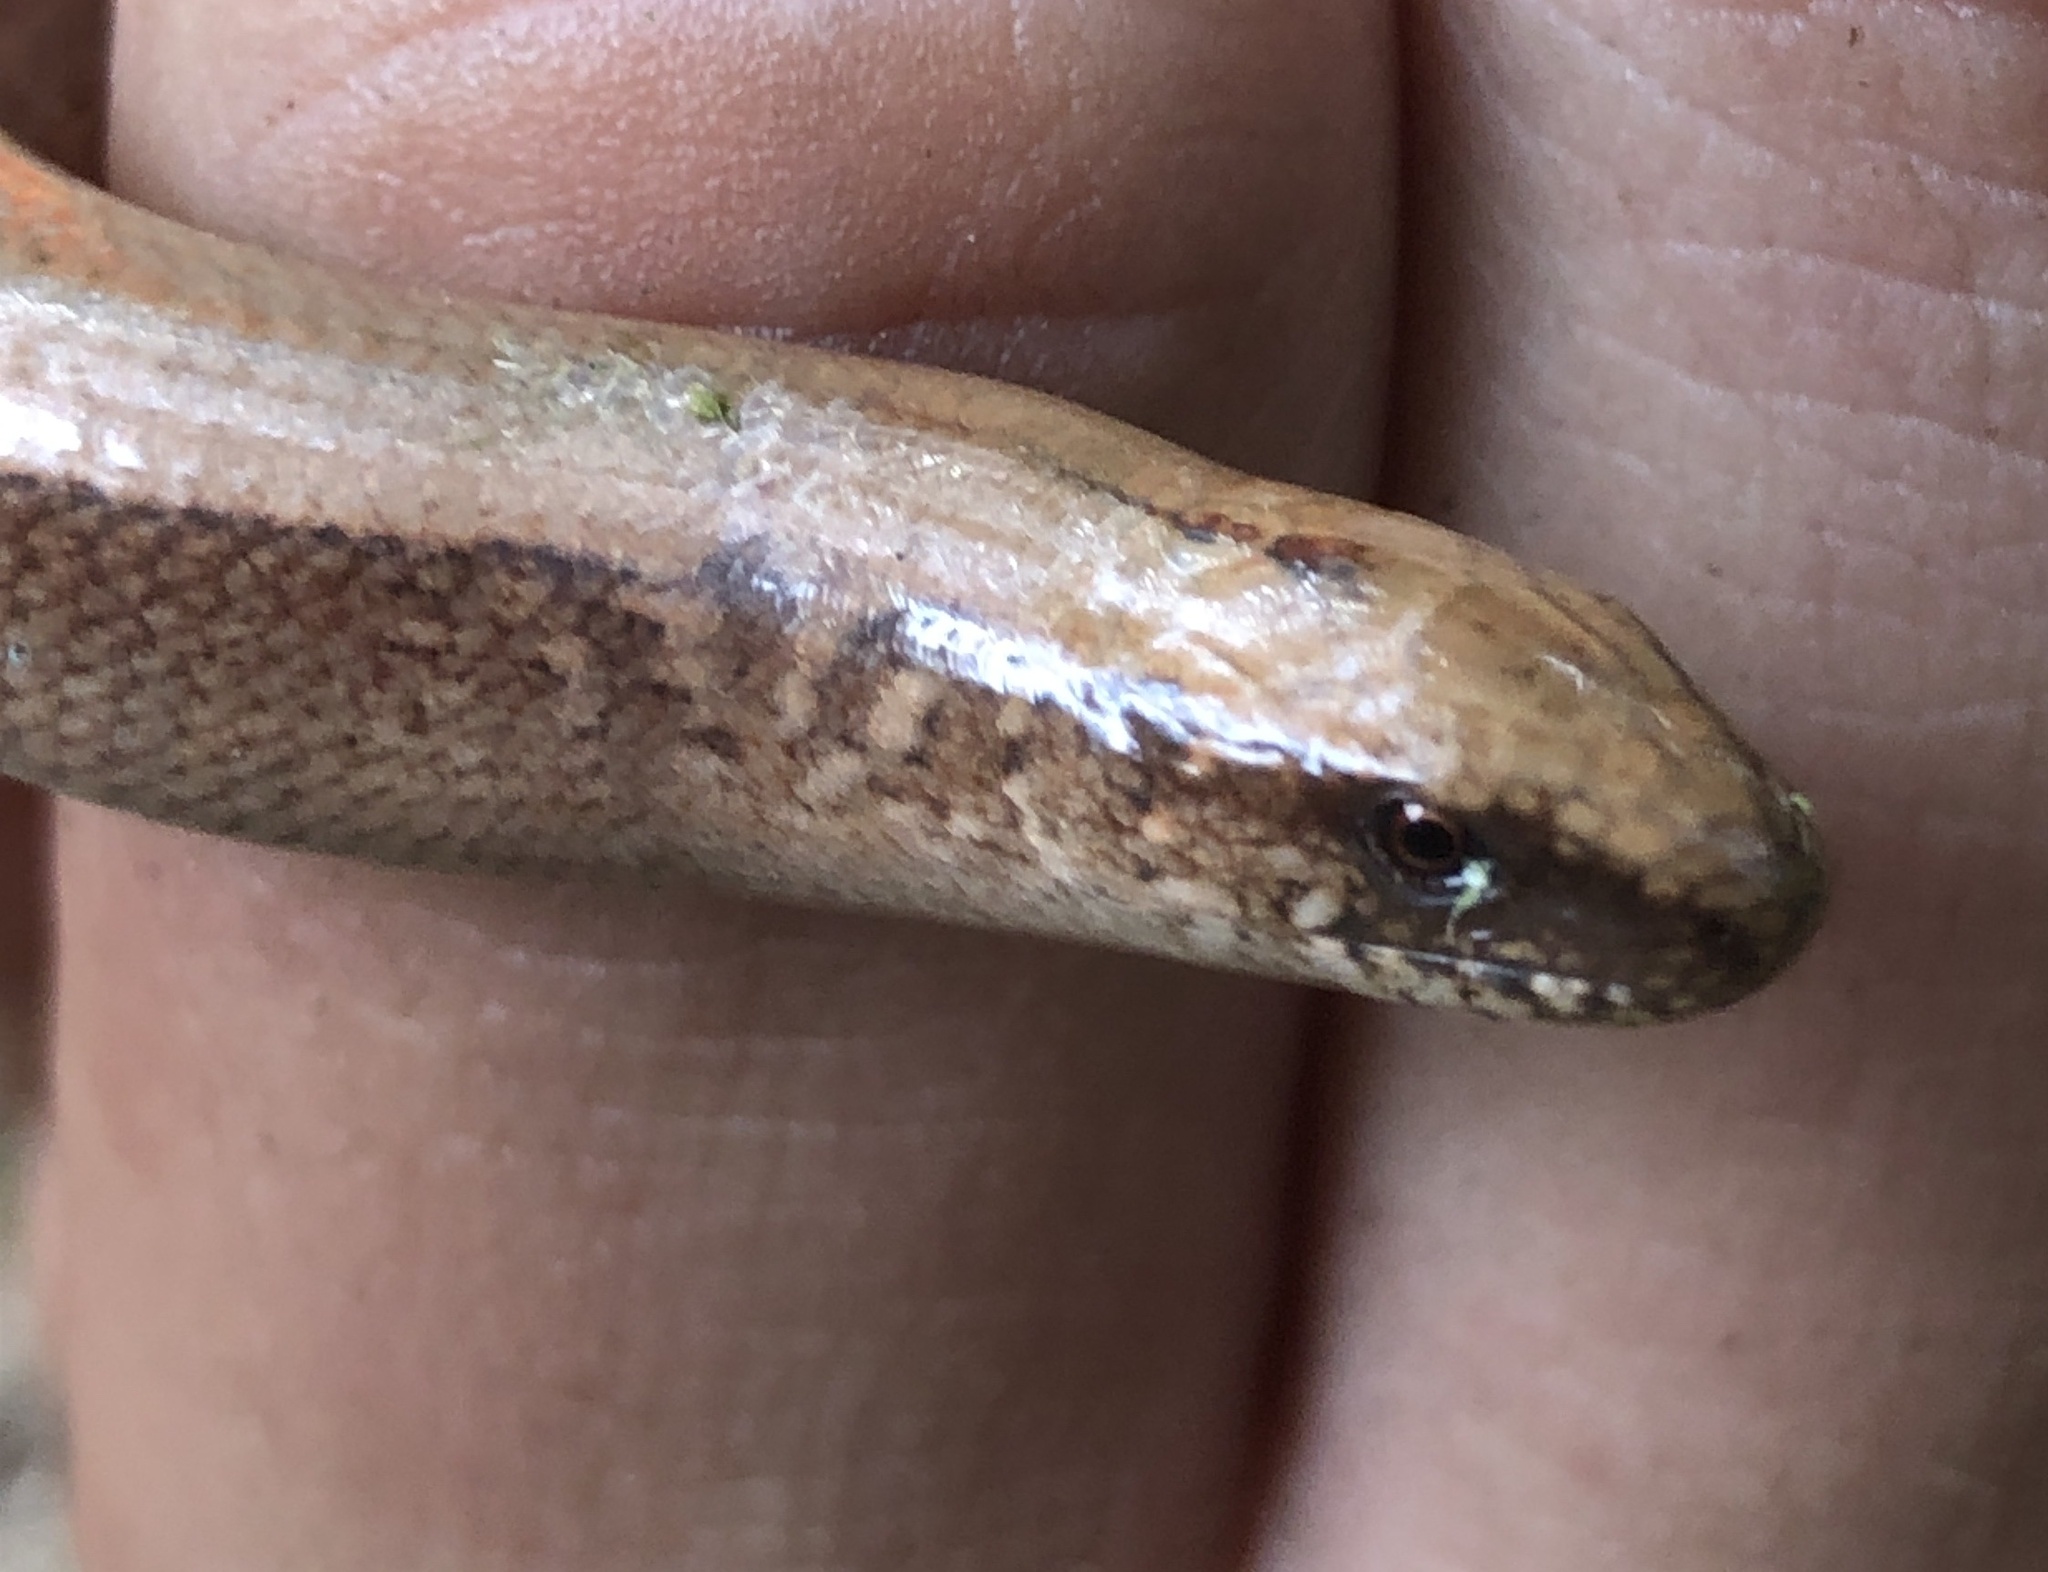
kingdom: Animalia
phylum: Chordata
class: Squamata
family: Anguidae
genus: Anguis
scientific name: Anguis fragilis
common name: Slow worm
